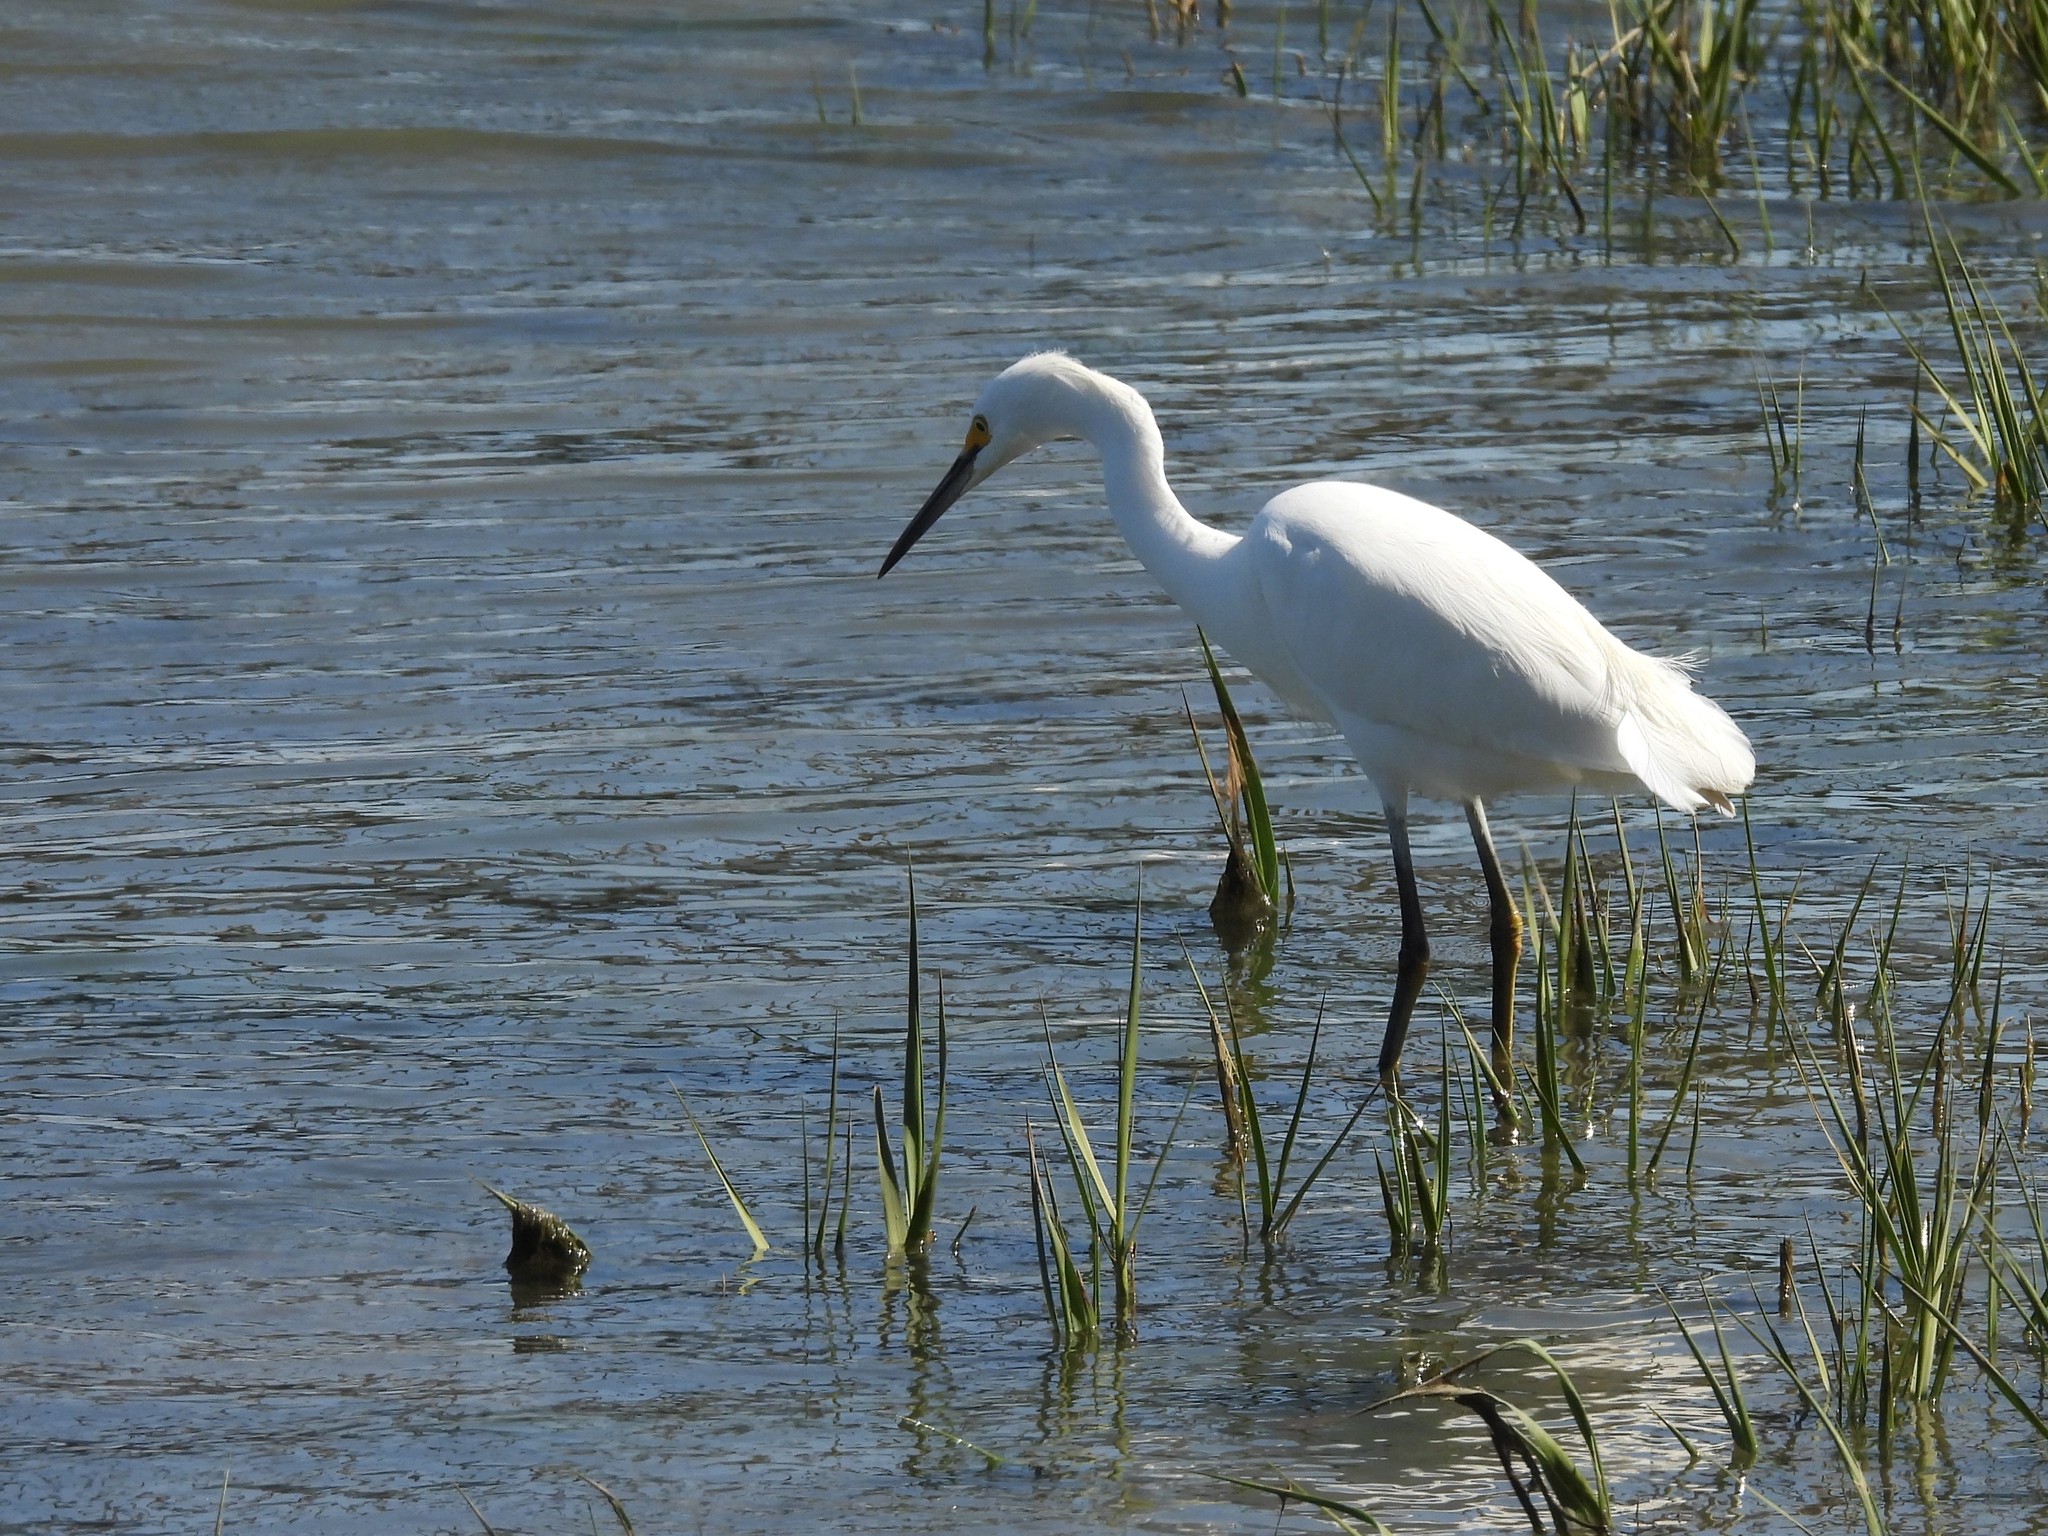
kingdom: Animalia
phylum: Chordata
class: Aves
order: Pelecaniformes
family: Ardeidae
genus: Egretta
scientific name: Egretta thula
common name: Snowy egret
